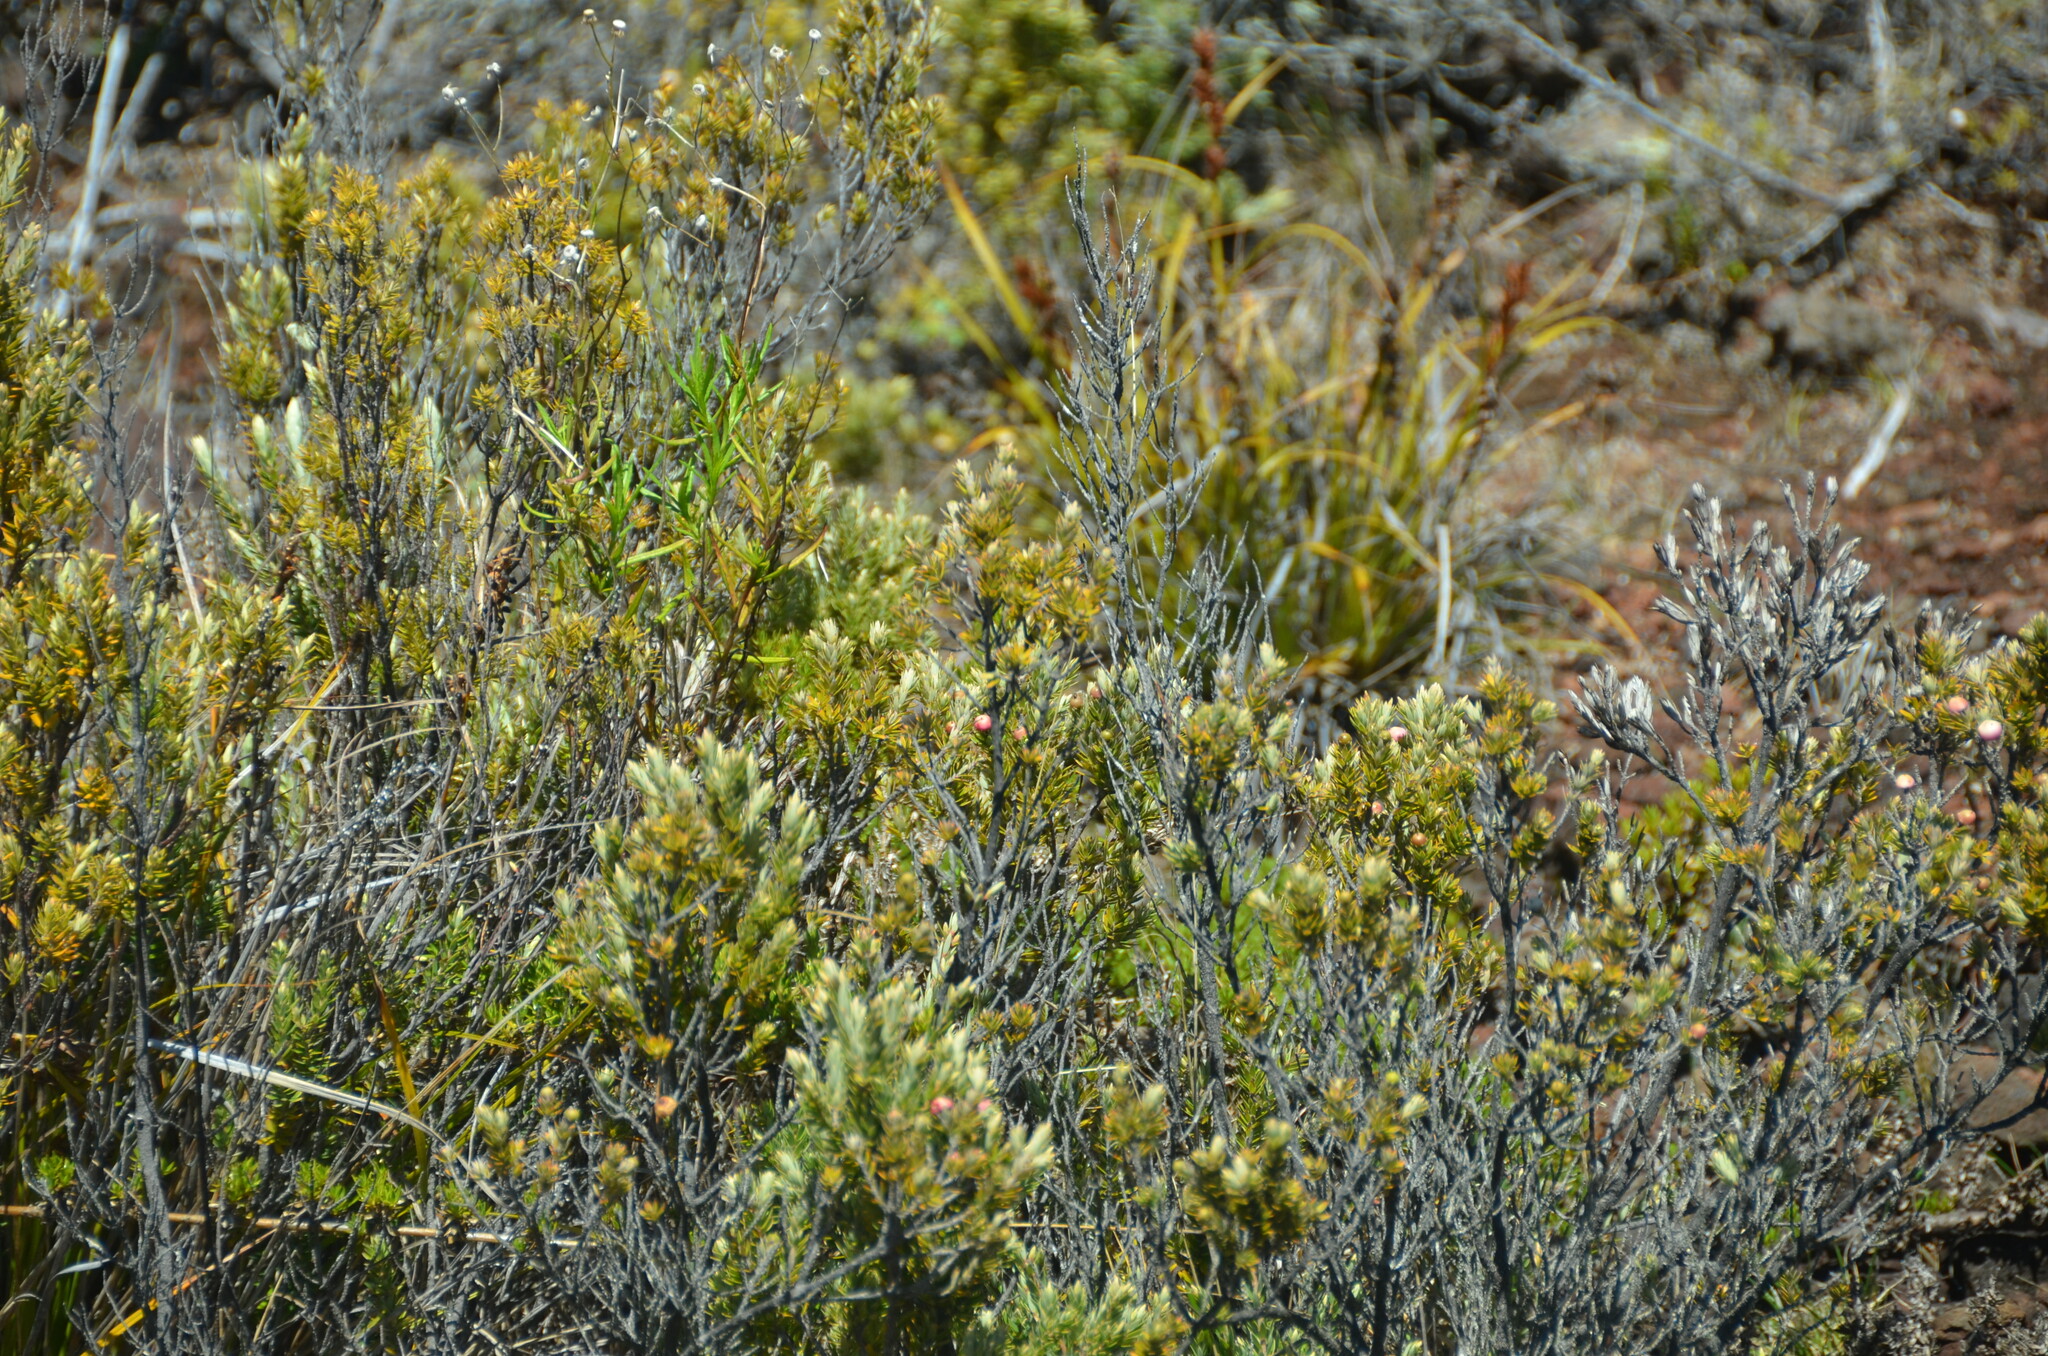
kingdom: Plantae
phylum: Tracheophyta
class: Magnoliopsida
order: Ericales
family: Ericaceae
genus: Leptecophylla
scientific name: Leptecophylla tameiameiae
